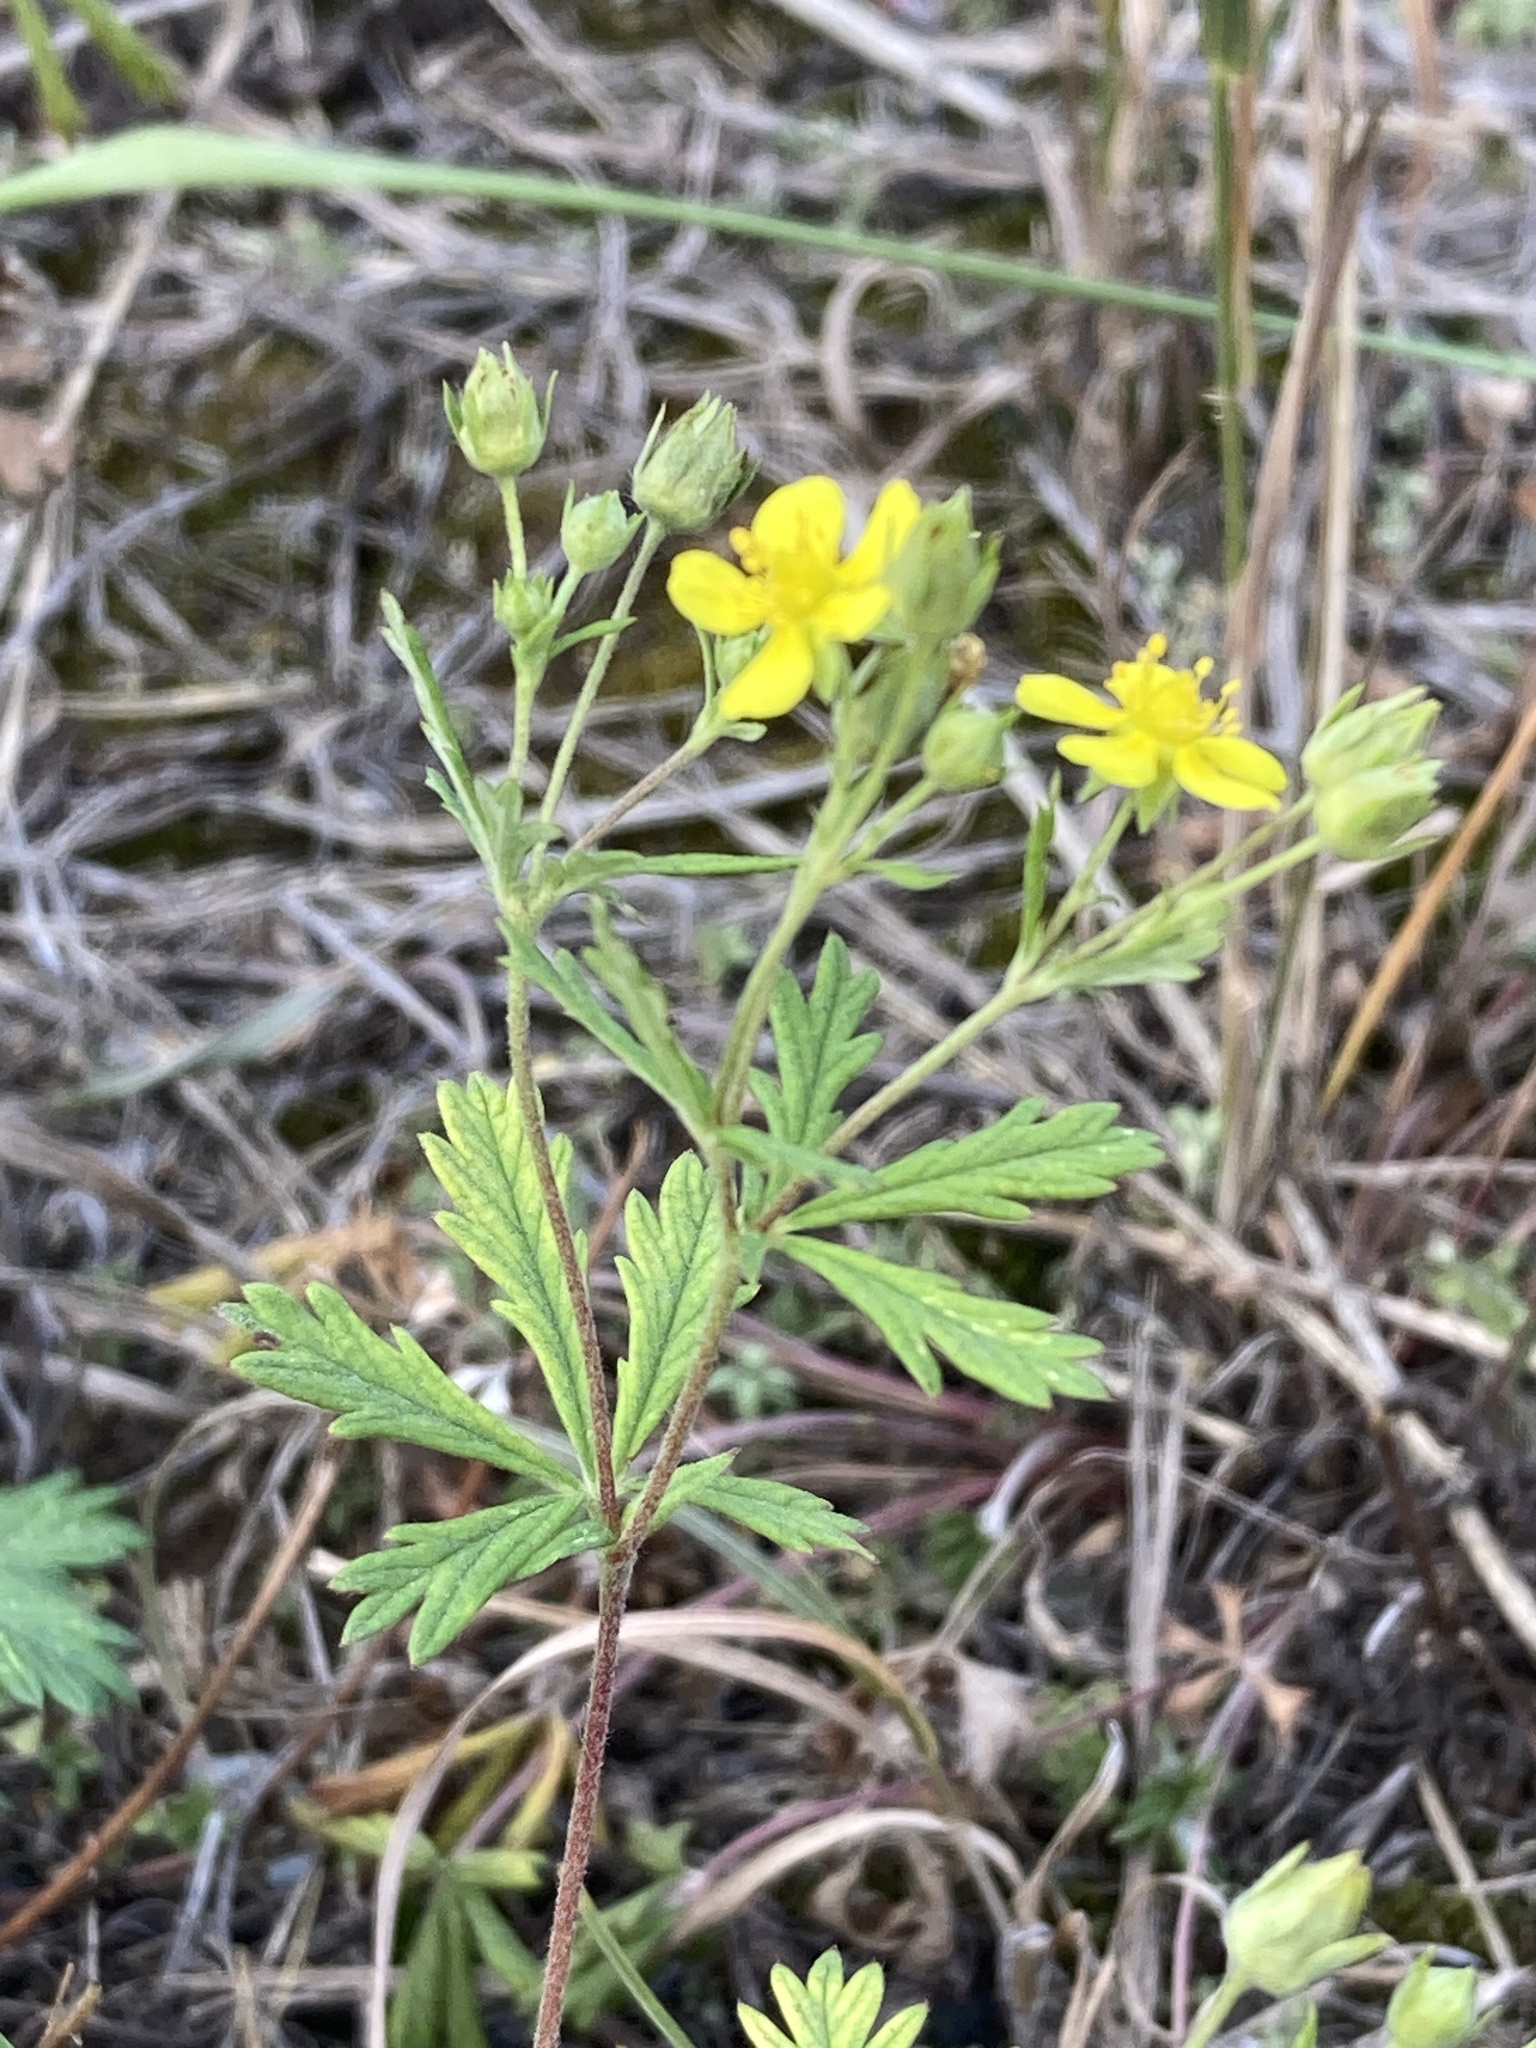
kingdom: Plantae
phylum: Tracheophyta
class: Magnoliopsida
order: Rosales
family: Rosaceae
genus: Potentilla
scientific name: Potentilla argentea
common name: Hoary cinquefoil
